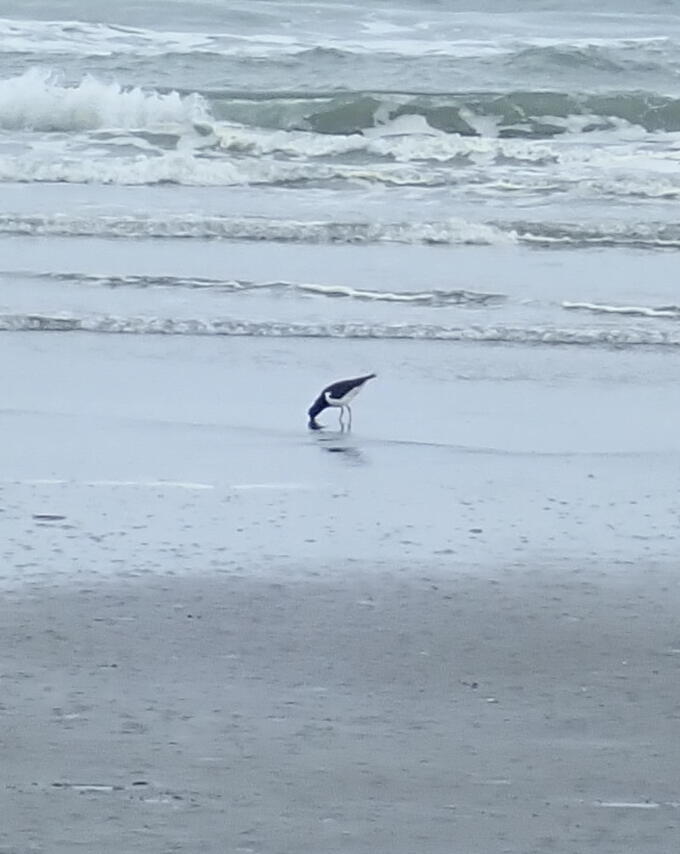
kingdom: Animalia
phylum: Chordata
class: Aves
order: Charadriiformes
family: Haematopodidae
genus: Haematopus
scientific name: Haematopus finschi
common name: South island oystercatcher
